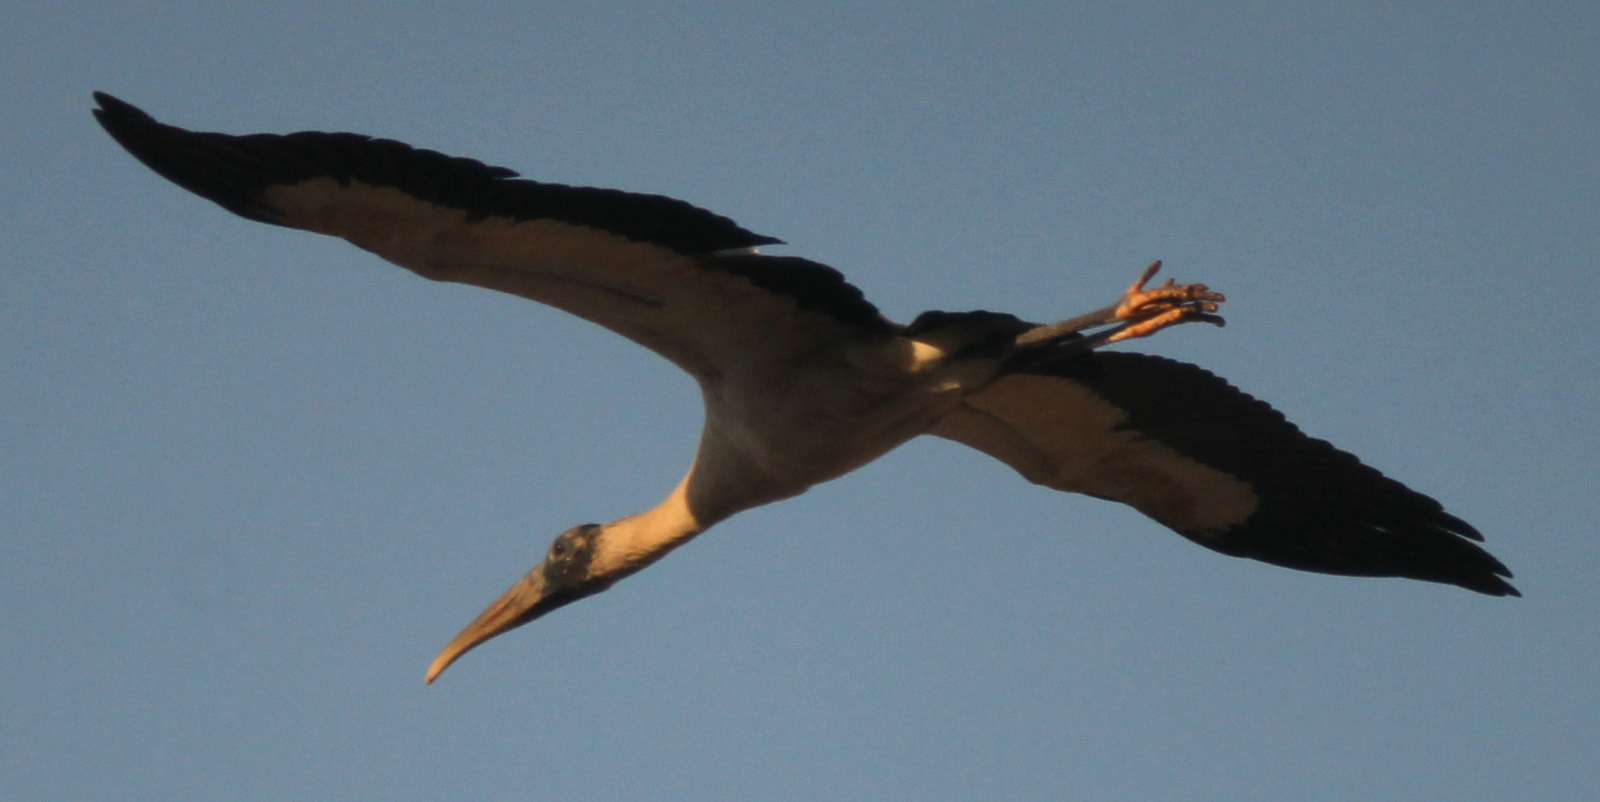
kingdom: Animalia
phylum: Chordata
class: Aves
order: Ciconiiformes
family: Ciconiidae
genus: Mycteria
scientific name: Mycteria americana
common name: Wood stork
